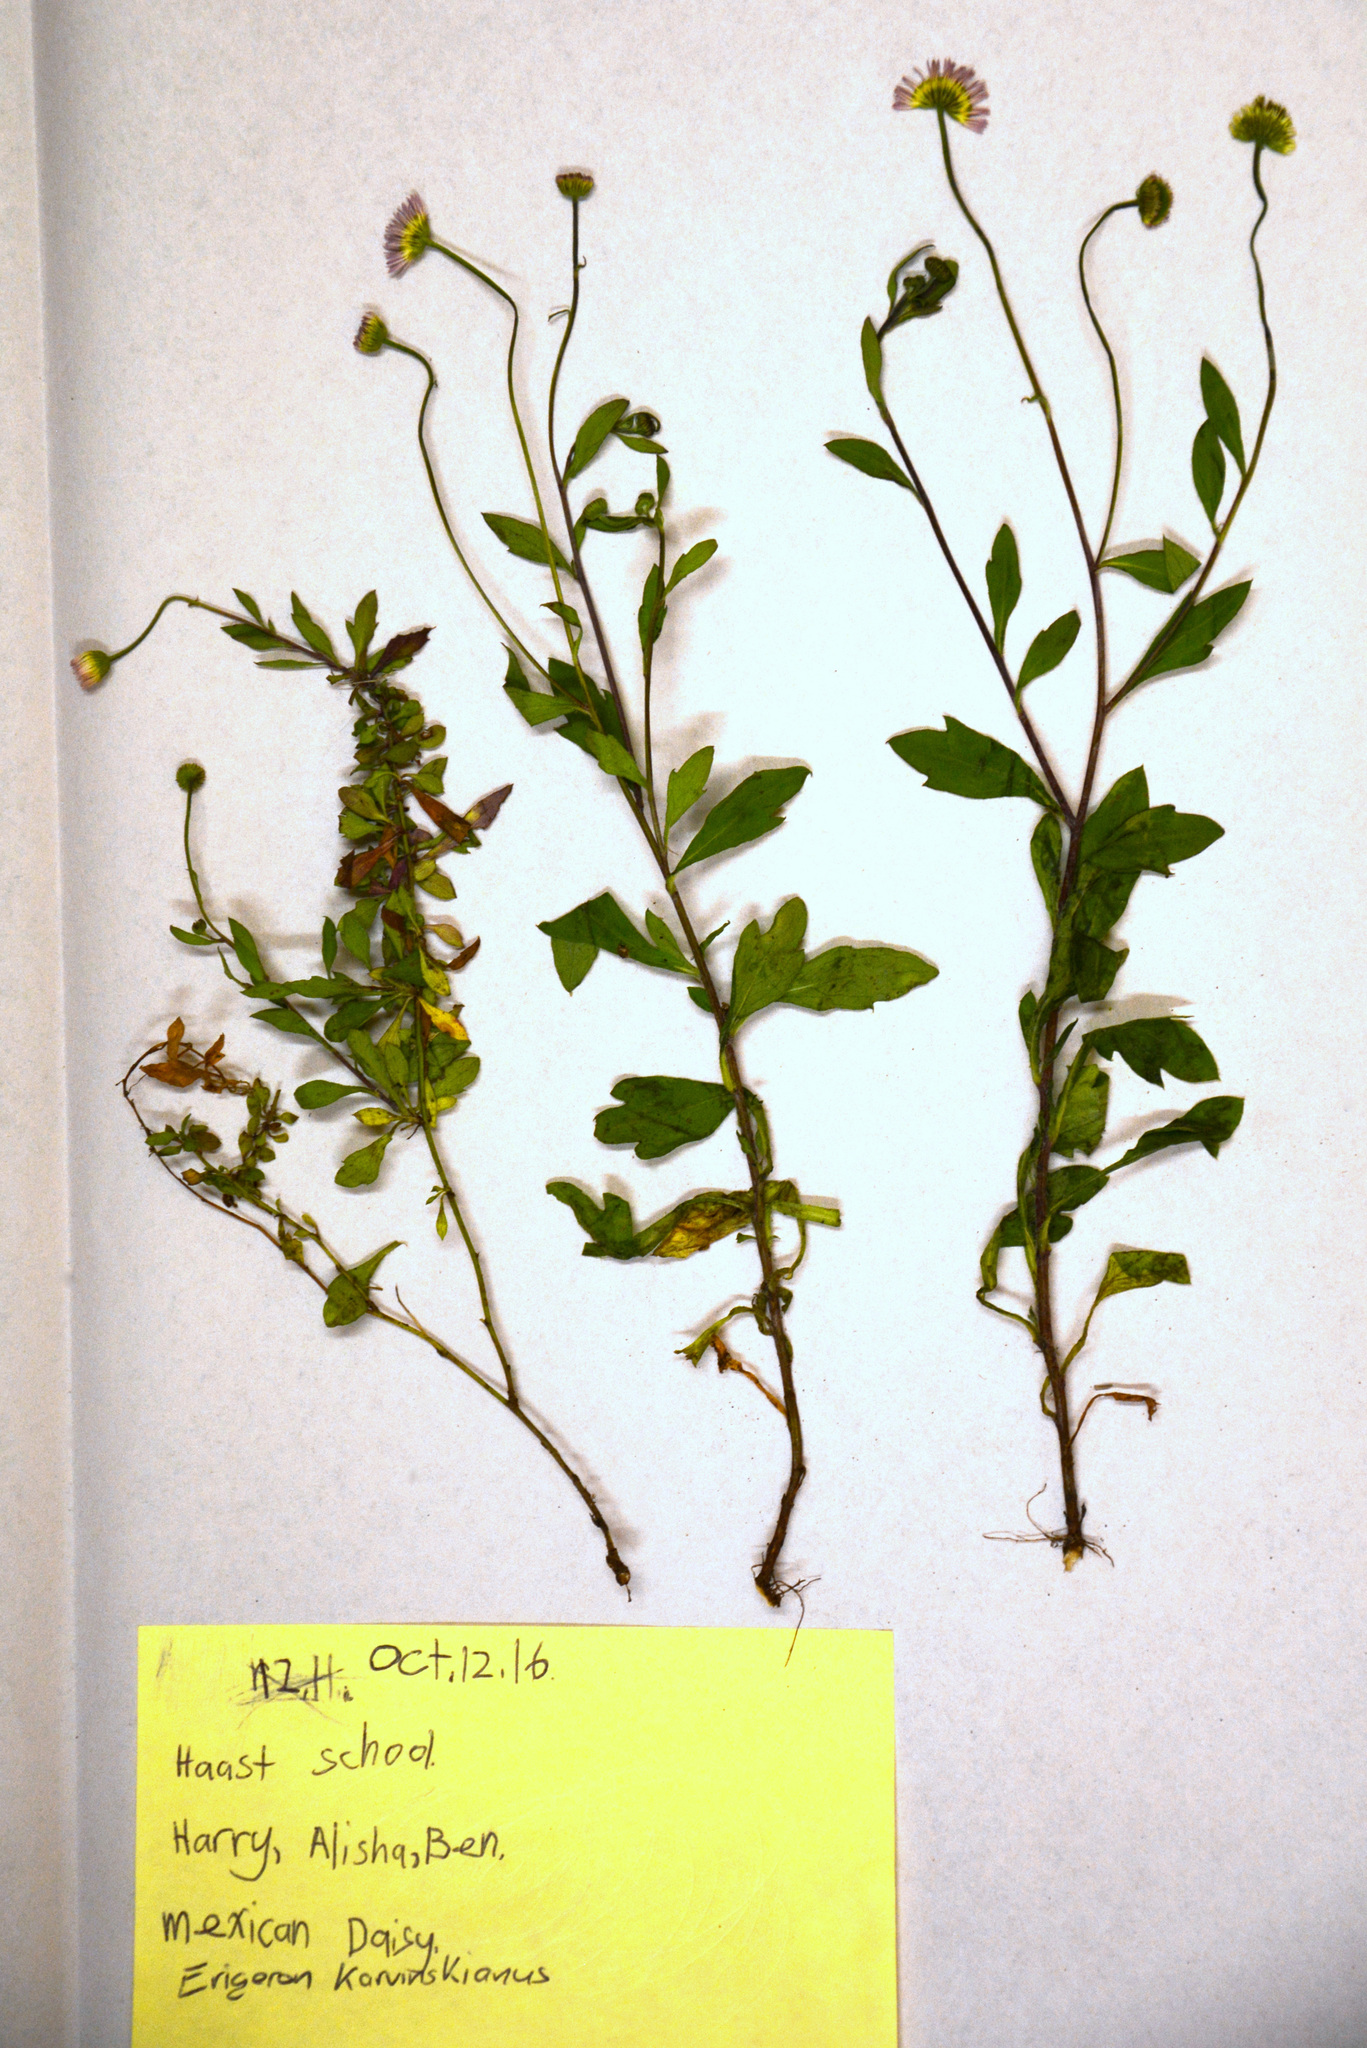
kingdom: Plantae
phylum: Tracheophyta
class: Magnoliopsida
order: Asterales
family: Asteraceae
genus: Erigeron
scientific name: Erigeron karvinskianus
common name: Mexican fleabane
